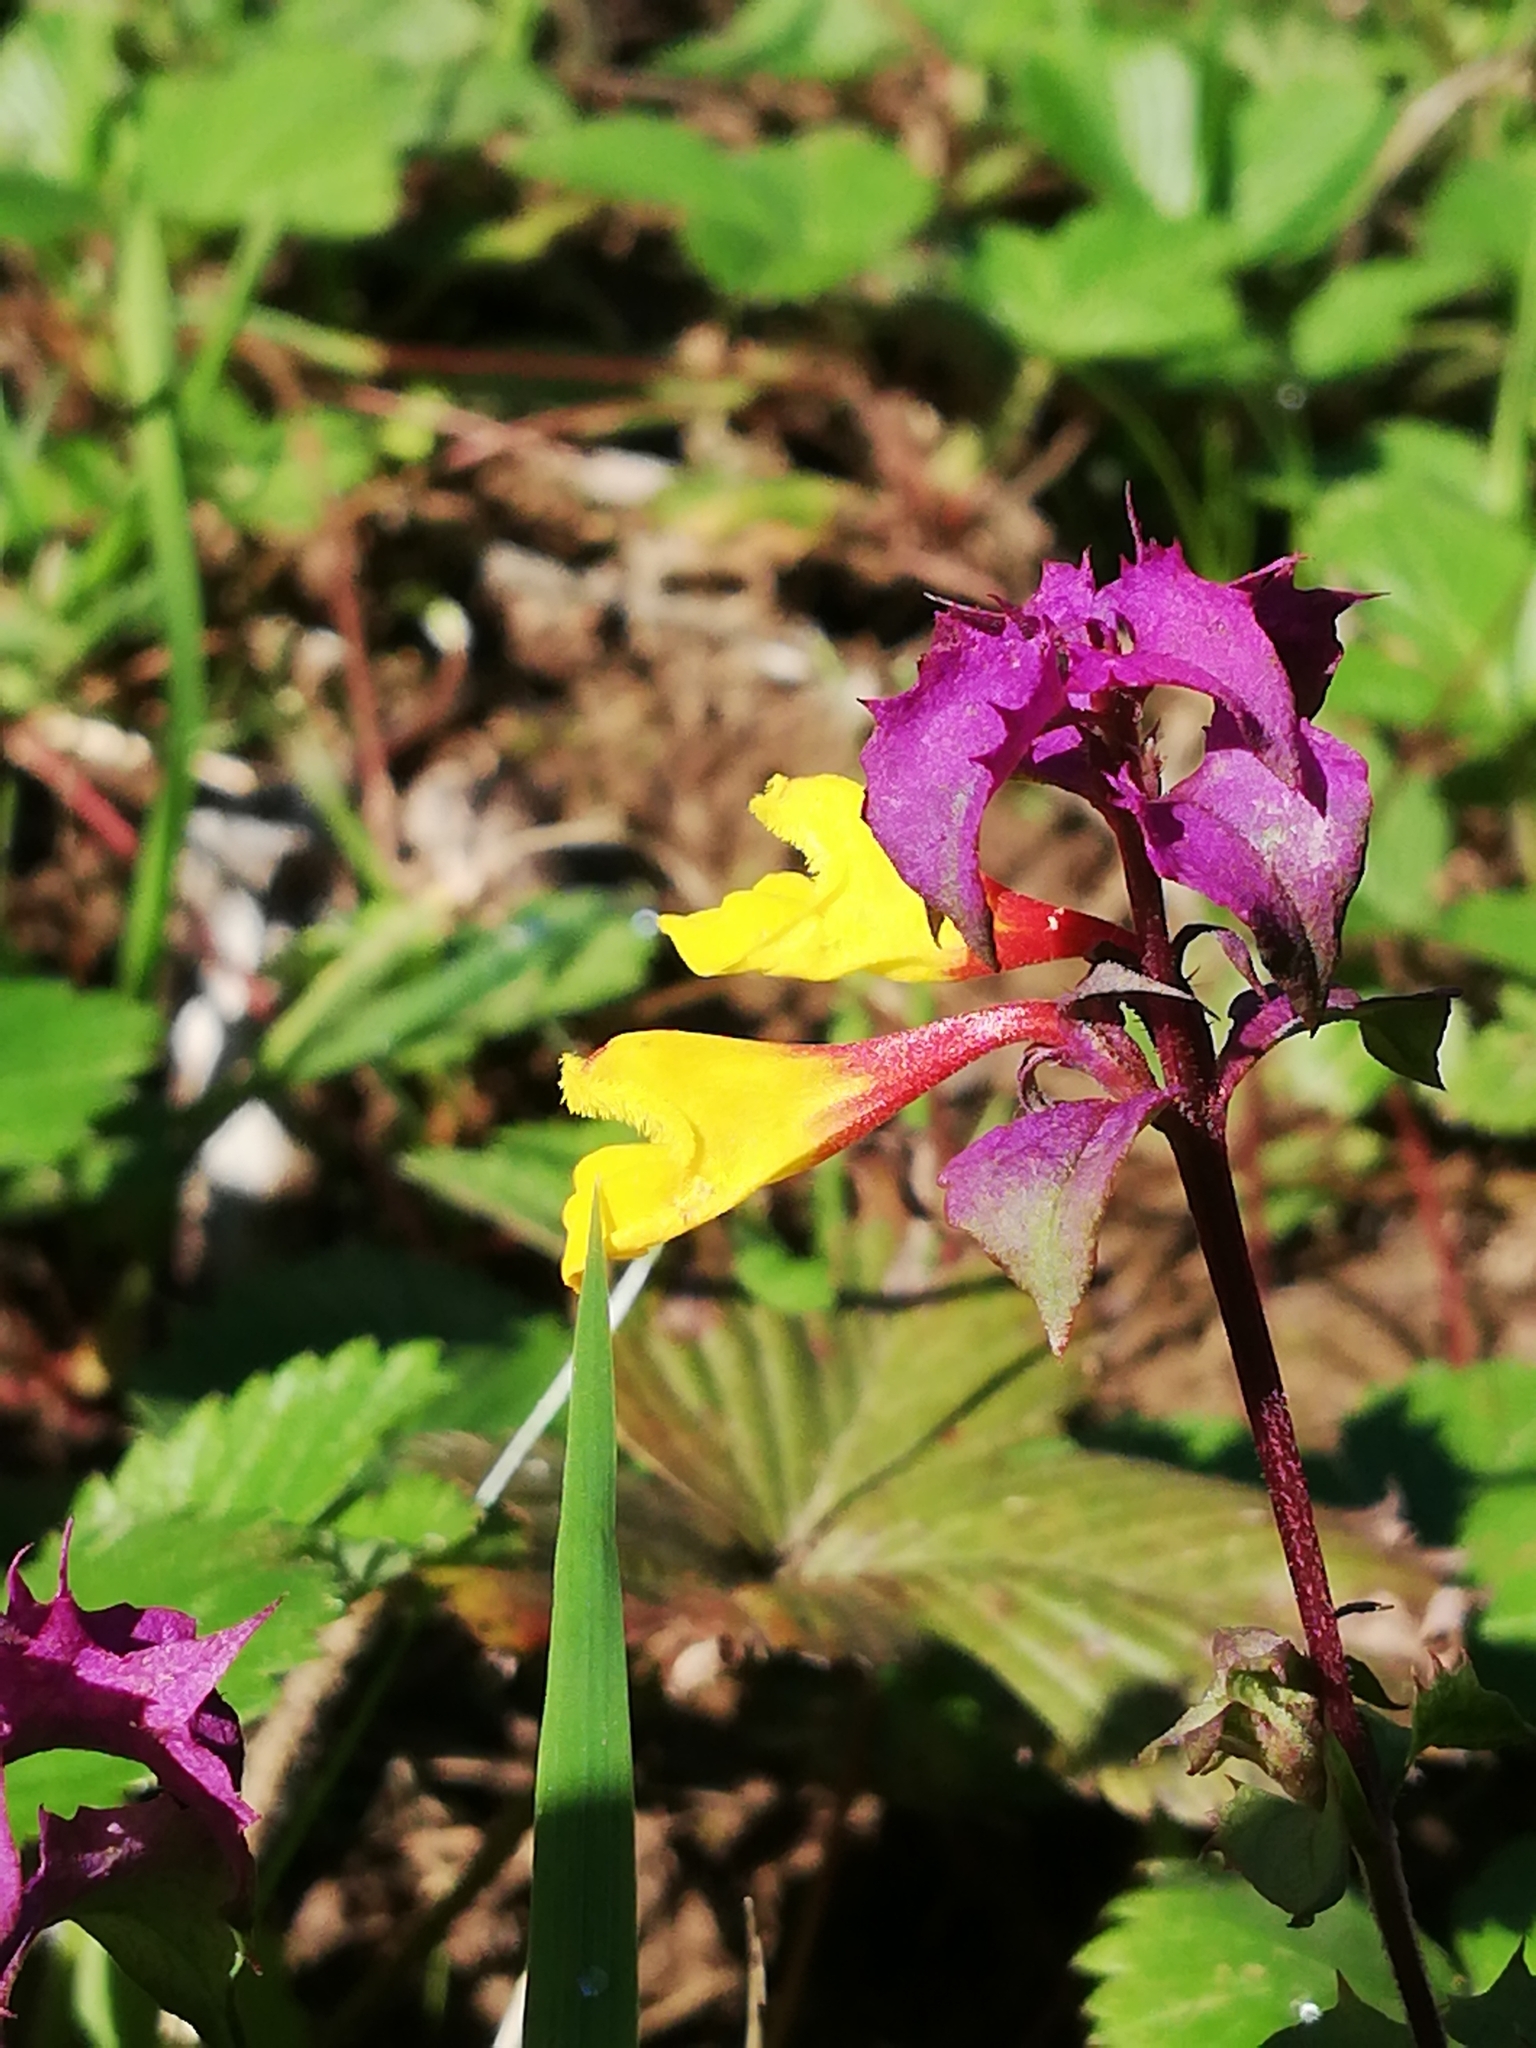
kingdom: Plantae
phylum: Tracheophyta
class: Magnoliopsida
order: Lamiales
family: Orobanchaceae
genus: Melampyrum
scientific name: Melampyrum nemorosum
